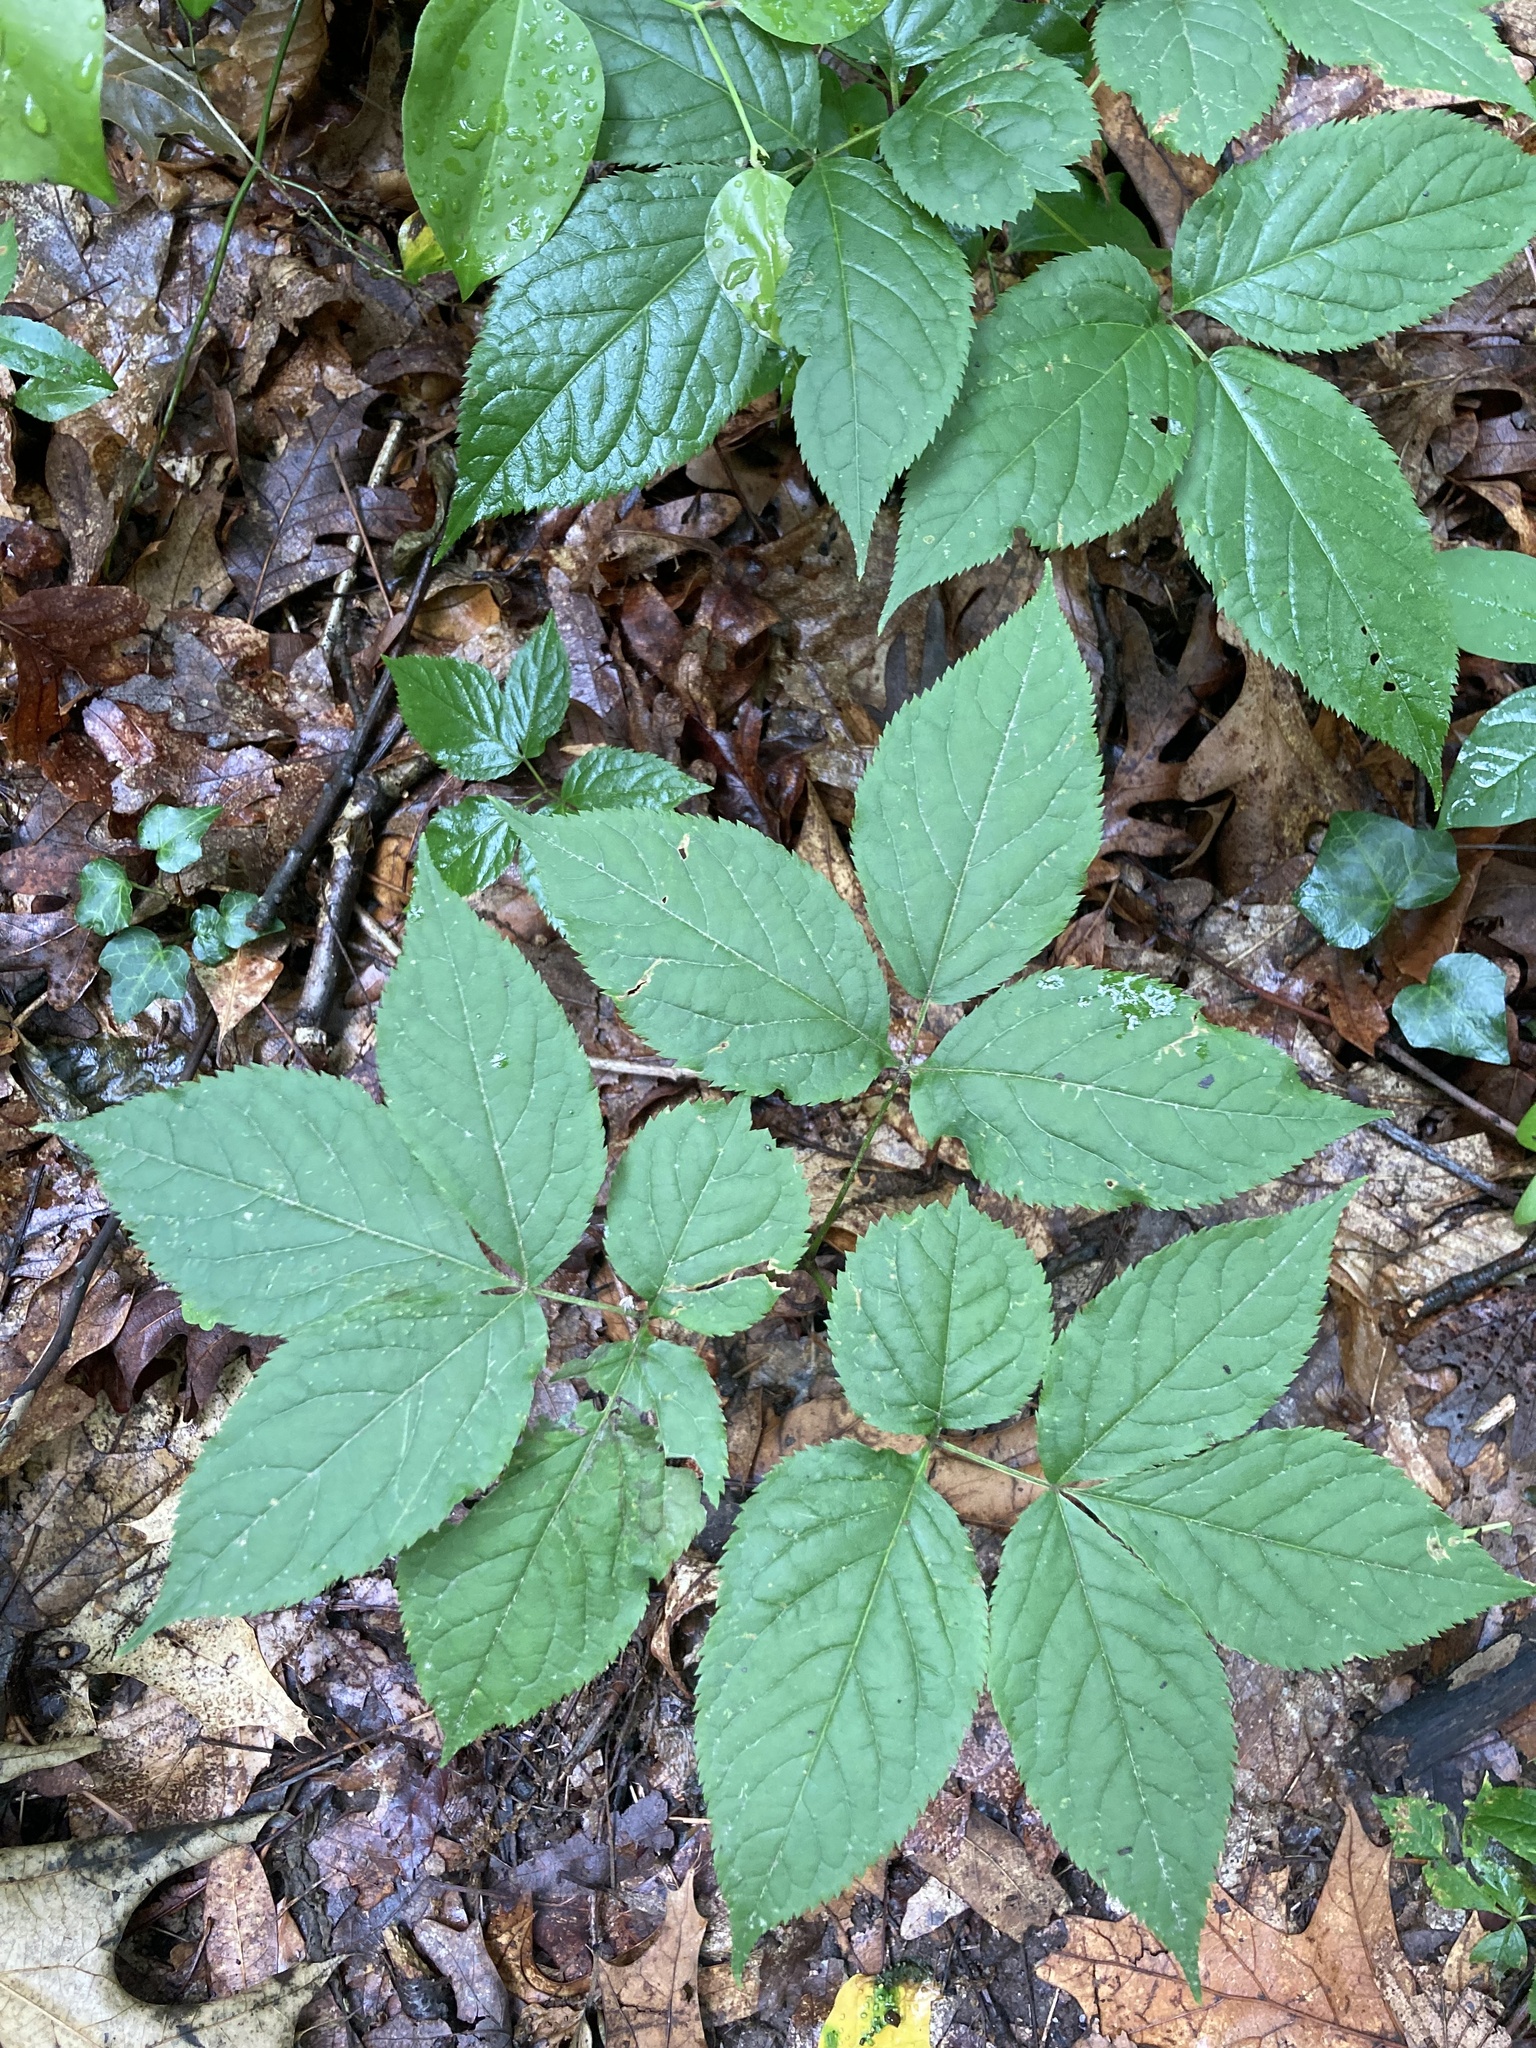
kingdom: Plantae
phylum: Tracheophyta
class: Magnoliopsida
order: Apiales
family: Araliaceae
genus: Aralia
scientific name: Aralia nudicaulis
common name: Wild sarsaparilla
